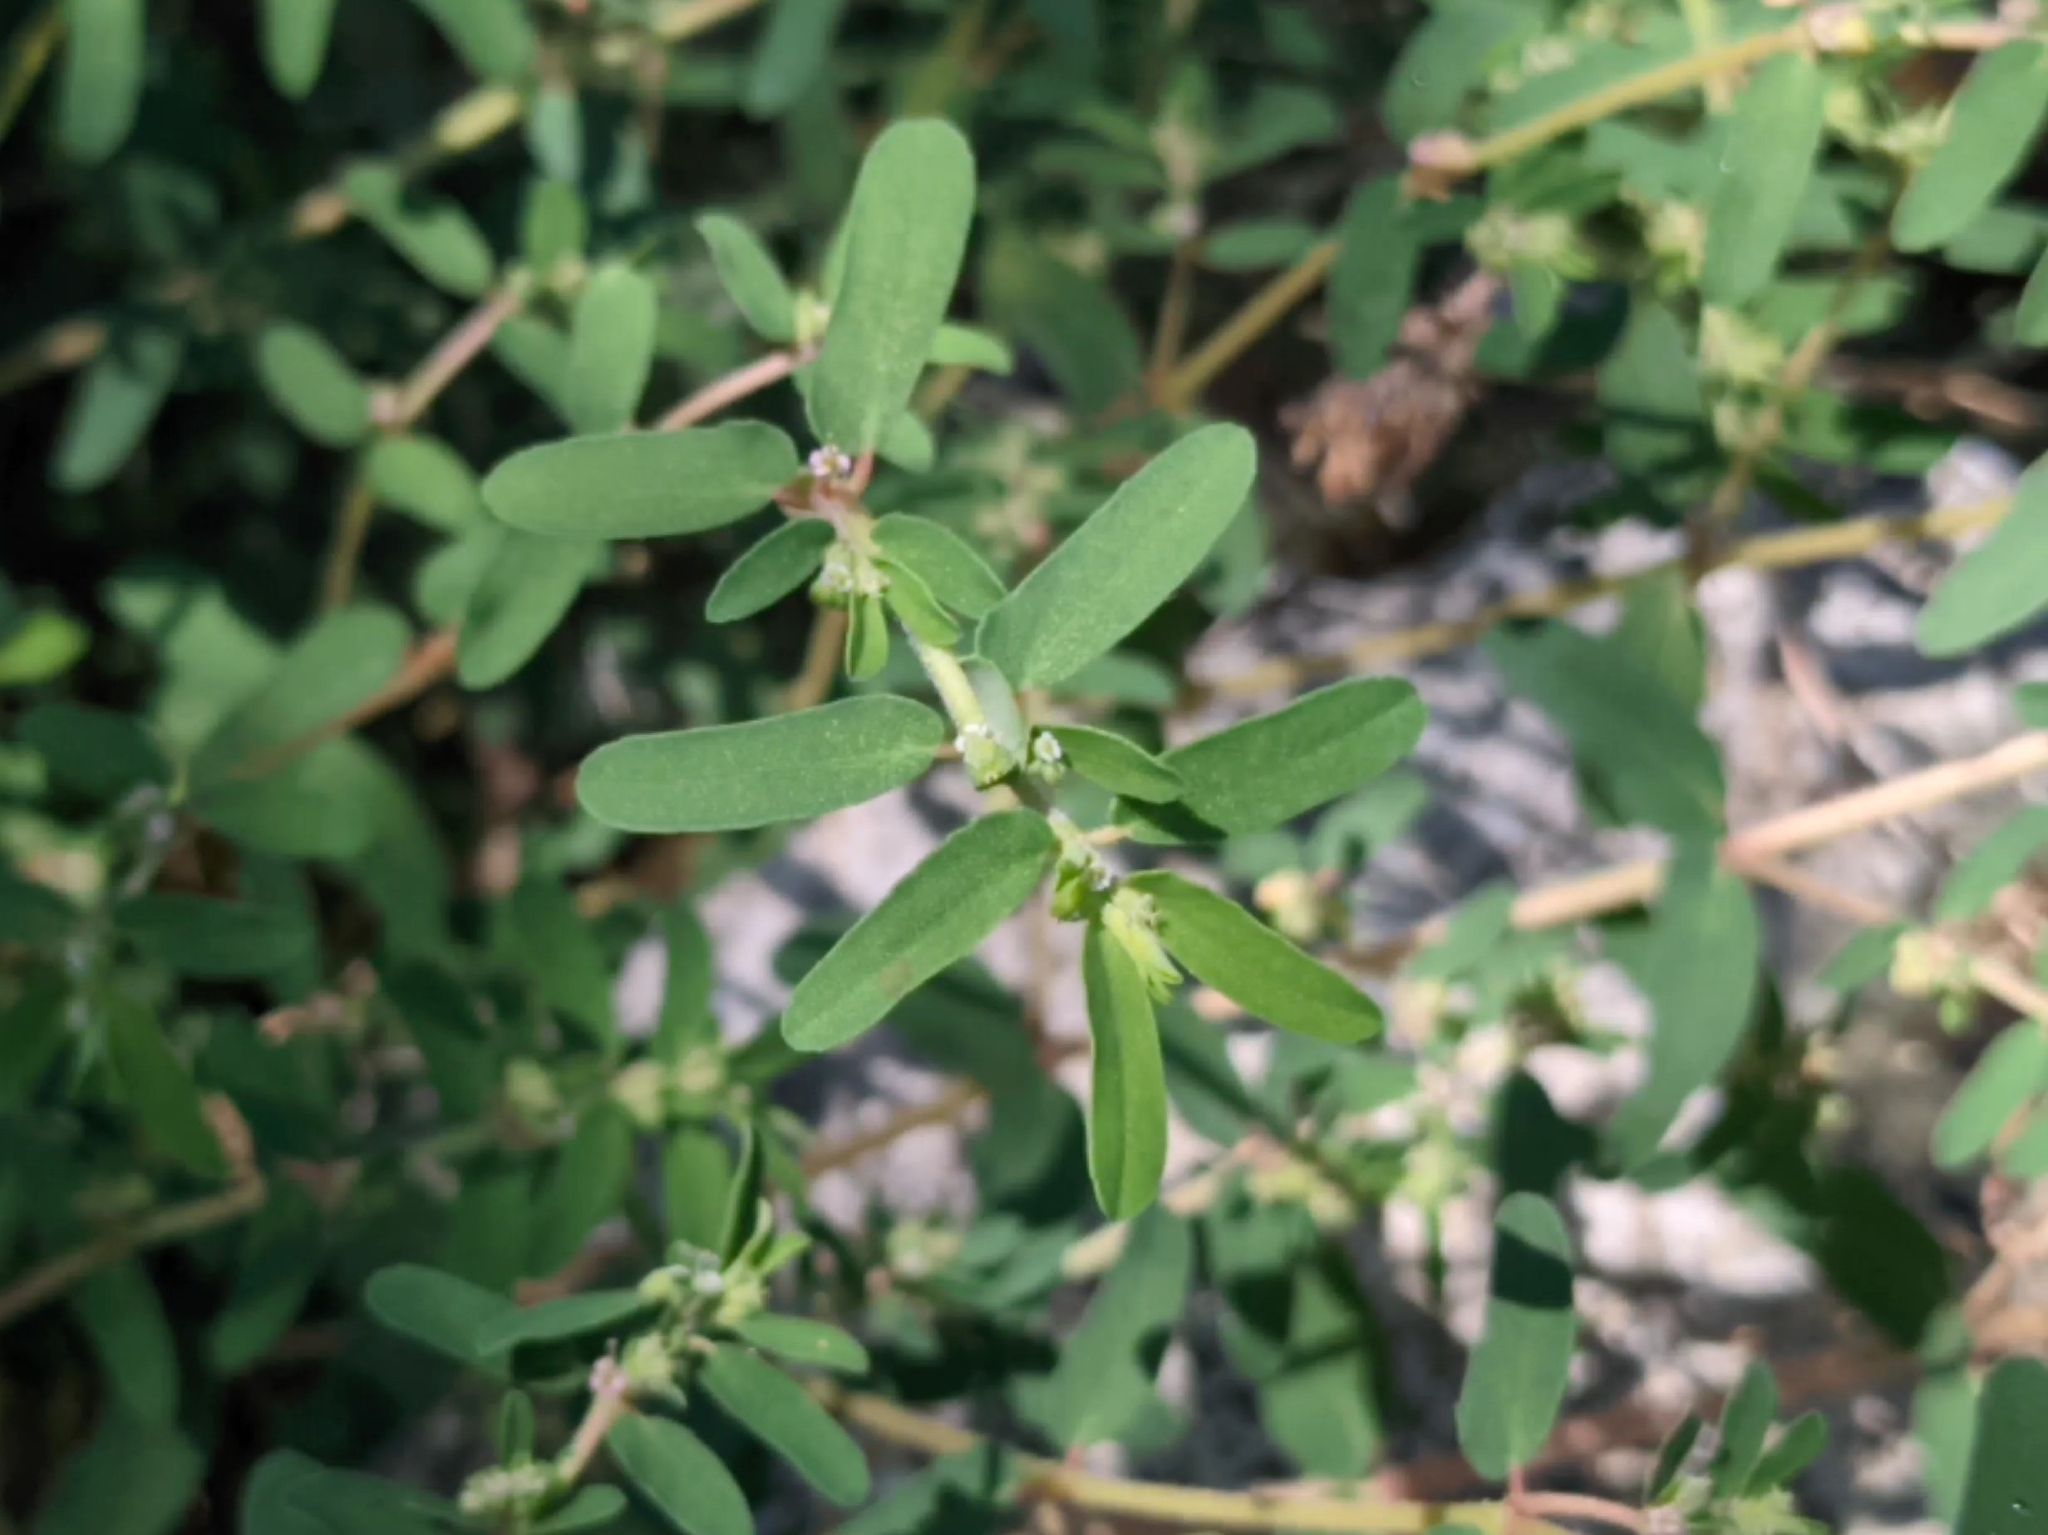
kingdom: Plantae
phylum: Tracheophyta
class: Magnoliopsida
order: Malpighiales
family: Euphorbiaceae
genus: Euphorbia
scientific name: Euphorbia maculata
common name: Spotted spurge
